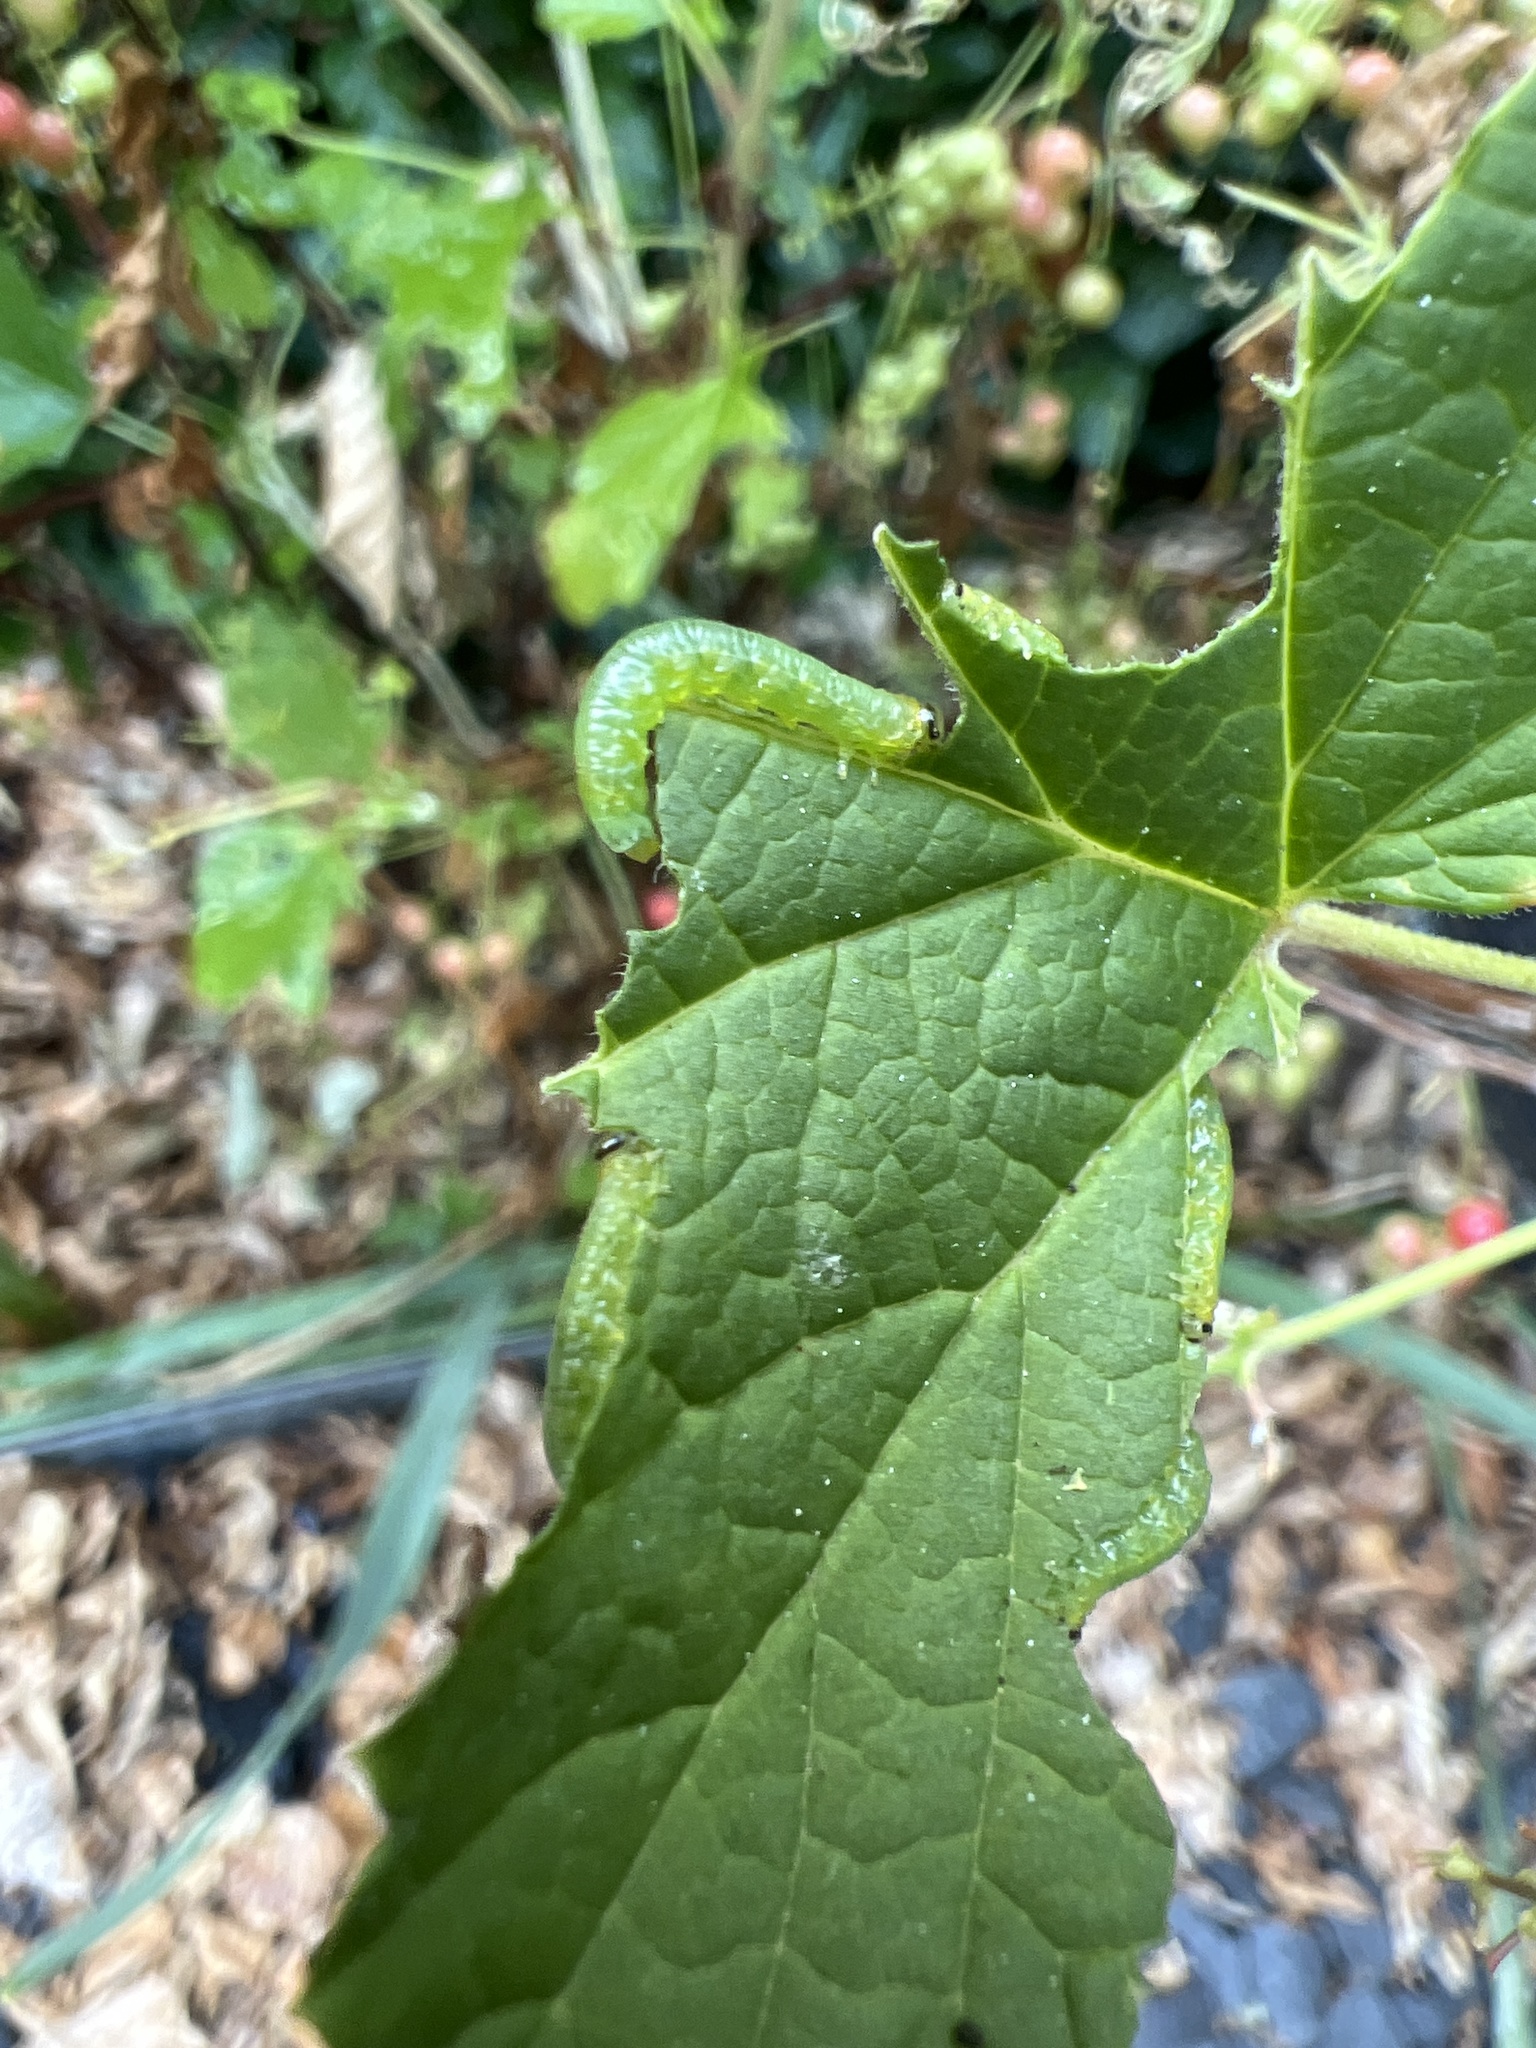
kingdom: Animalia
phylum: Arthropoda
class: Insecta
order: Hymenoptera
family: Tenthredinidae
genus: Pristiphora
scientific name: Pristiphora appendiculata
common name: Tenthredid wasp
